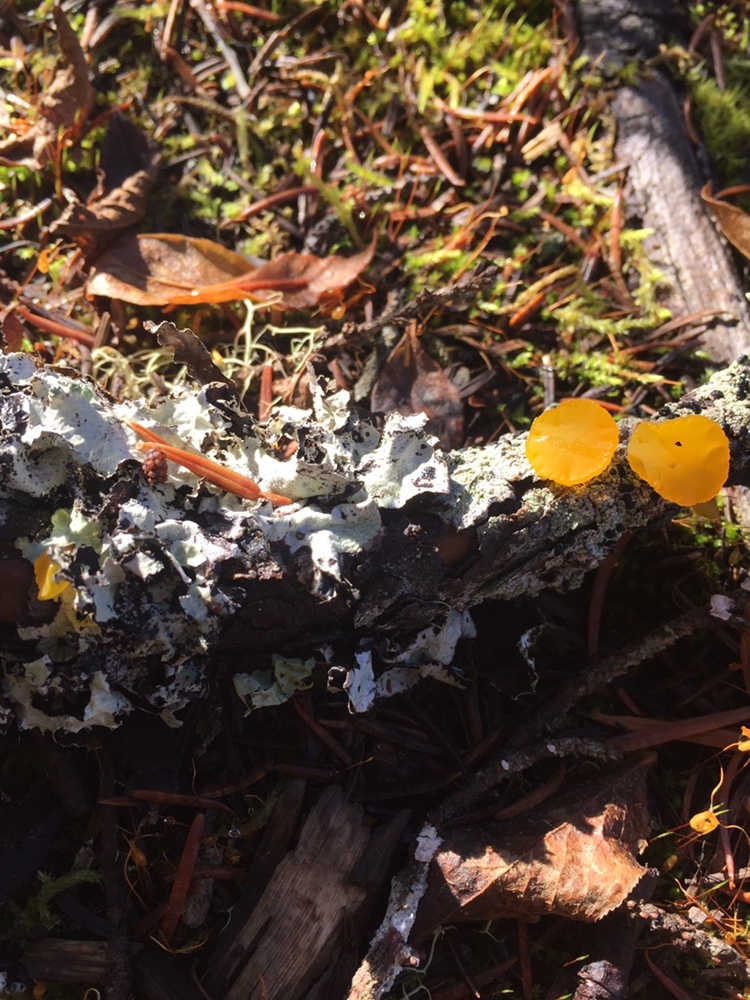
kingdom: Fungi
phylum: Basidiomycota
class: Dacrymycetes
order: Dacrymycetales
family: Dacrymycetaceae
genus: Guepiniopsis
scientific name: Guepiniopsis alpina
